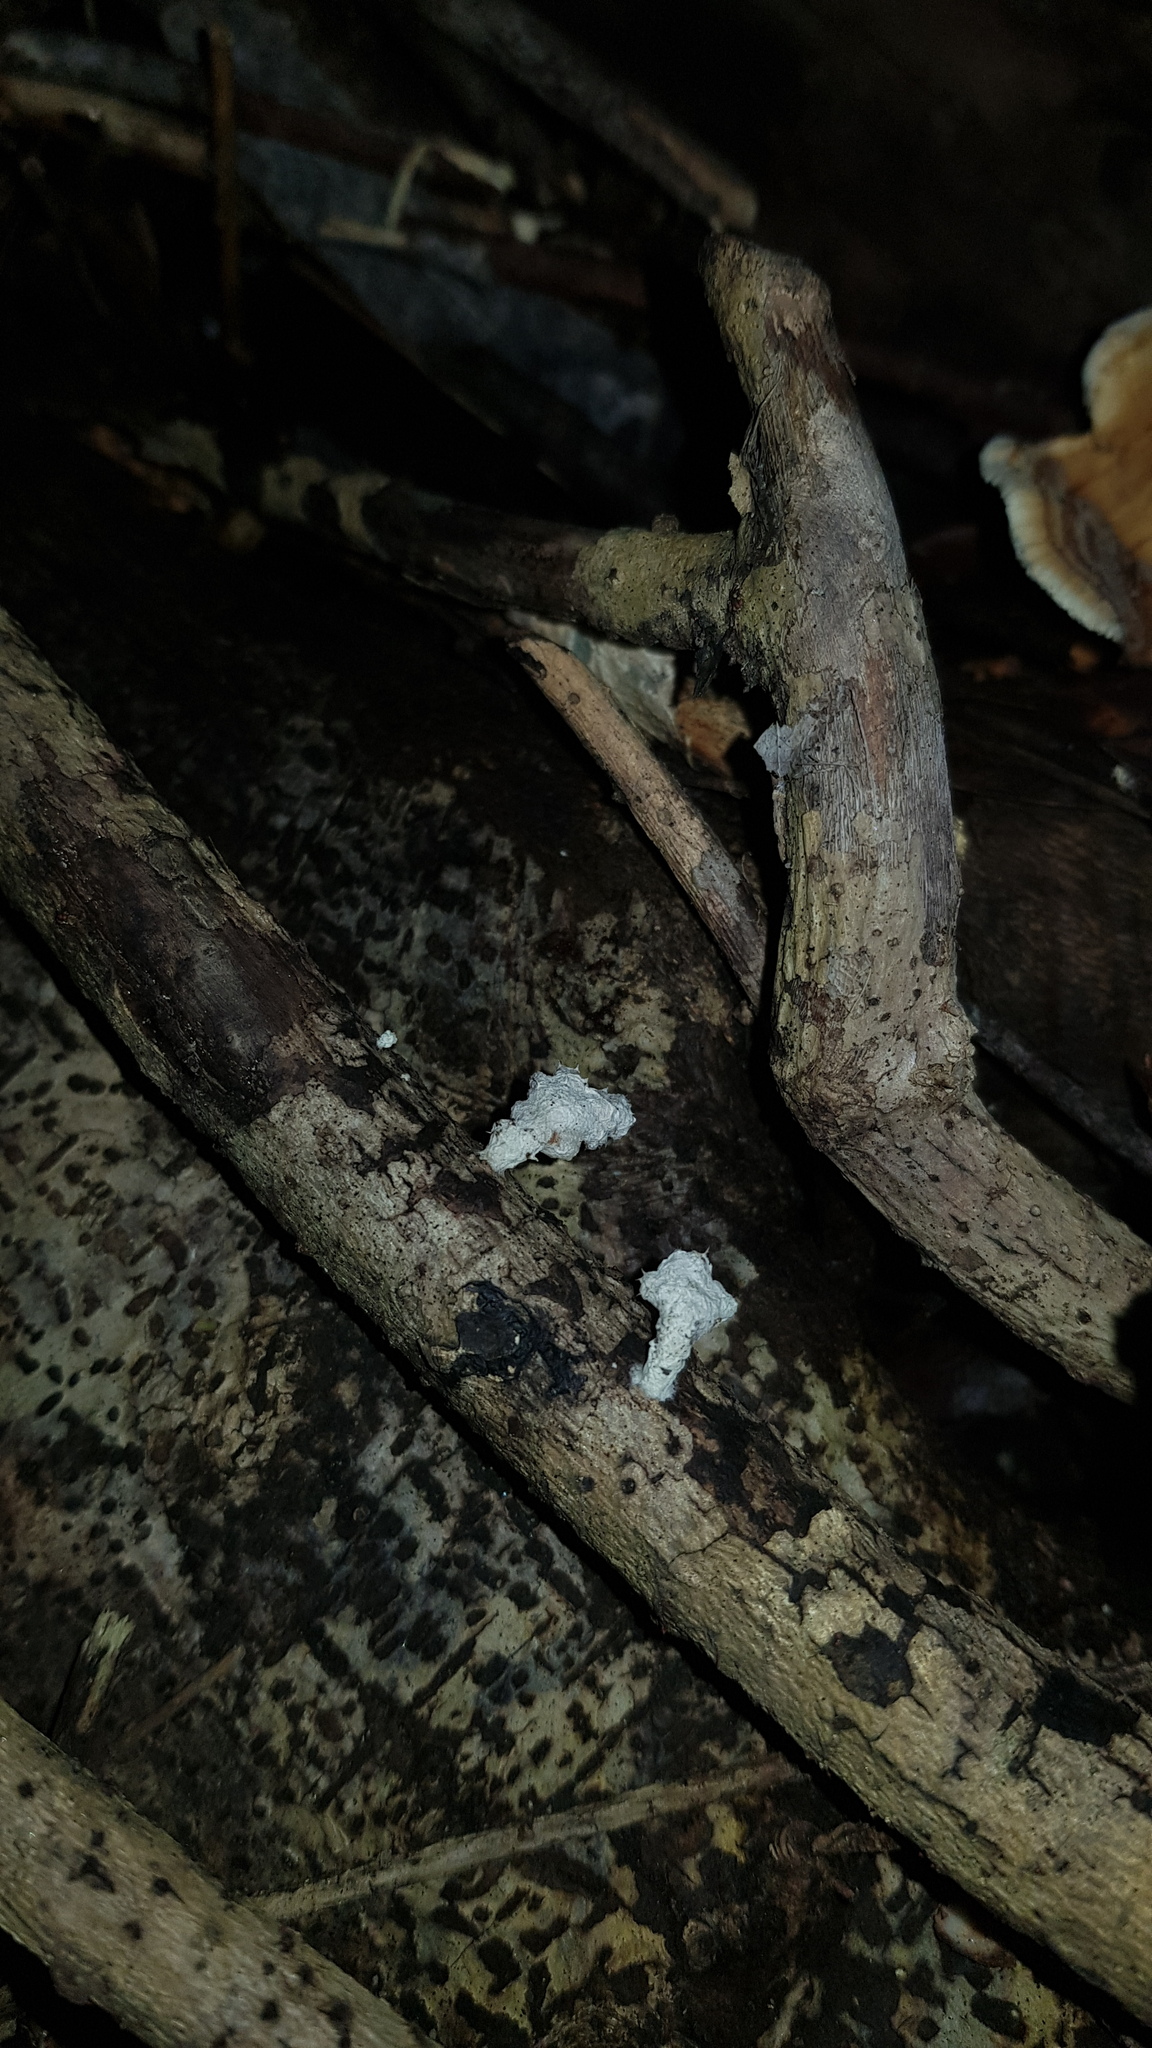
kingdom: Fungi
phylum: Basidiomycota
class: Agaricomycetes
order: Agaricales
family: Schizophyllaceae
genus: Schizophyllum
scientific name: Schizophyllum commune
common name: Common porecrust
